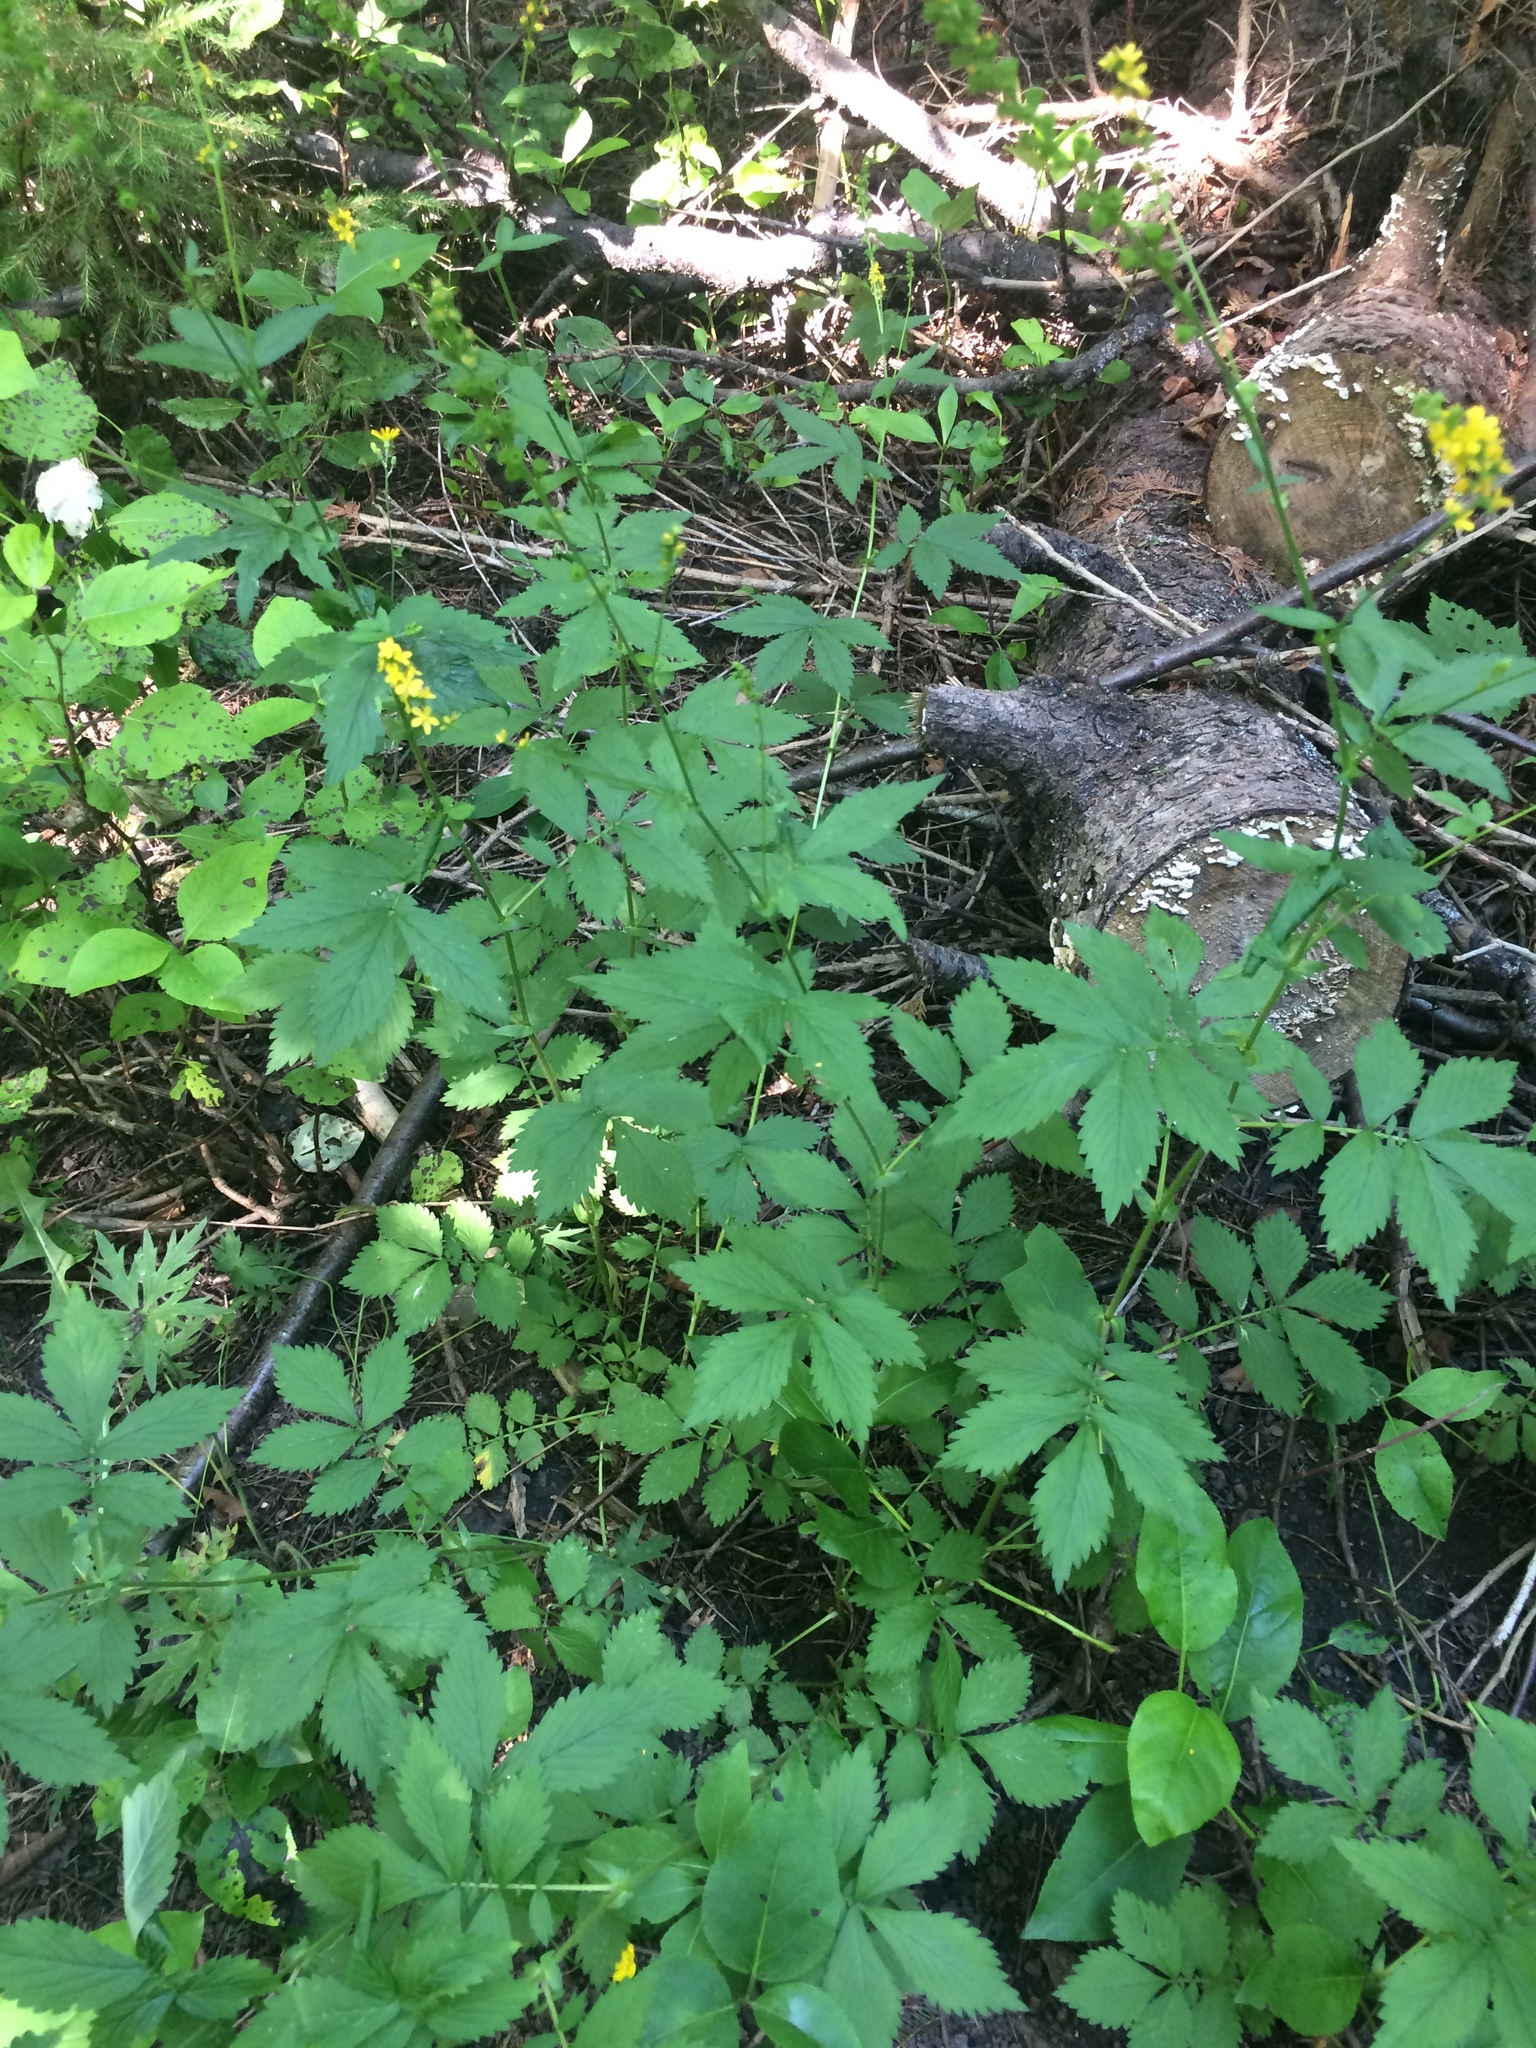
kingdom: Plantae
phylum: Tracheophyta
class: Magnoliopsida
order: Rosales
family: Rosaceae
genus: Agrimonia
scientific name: Agrimonia striata
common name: Britton's agrimony
